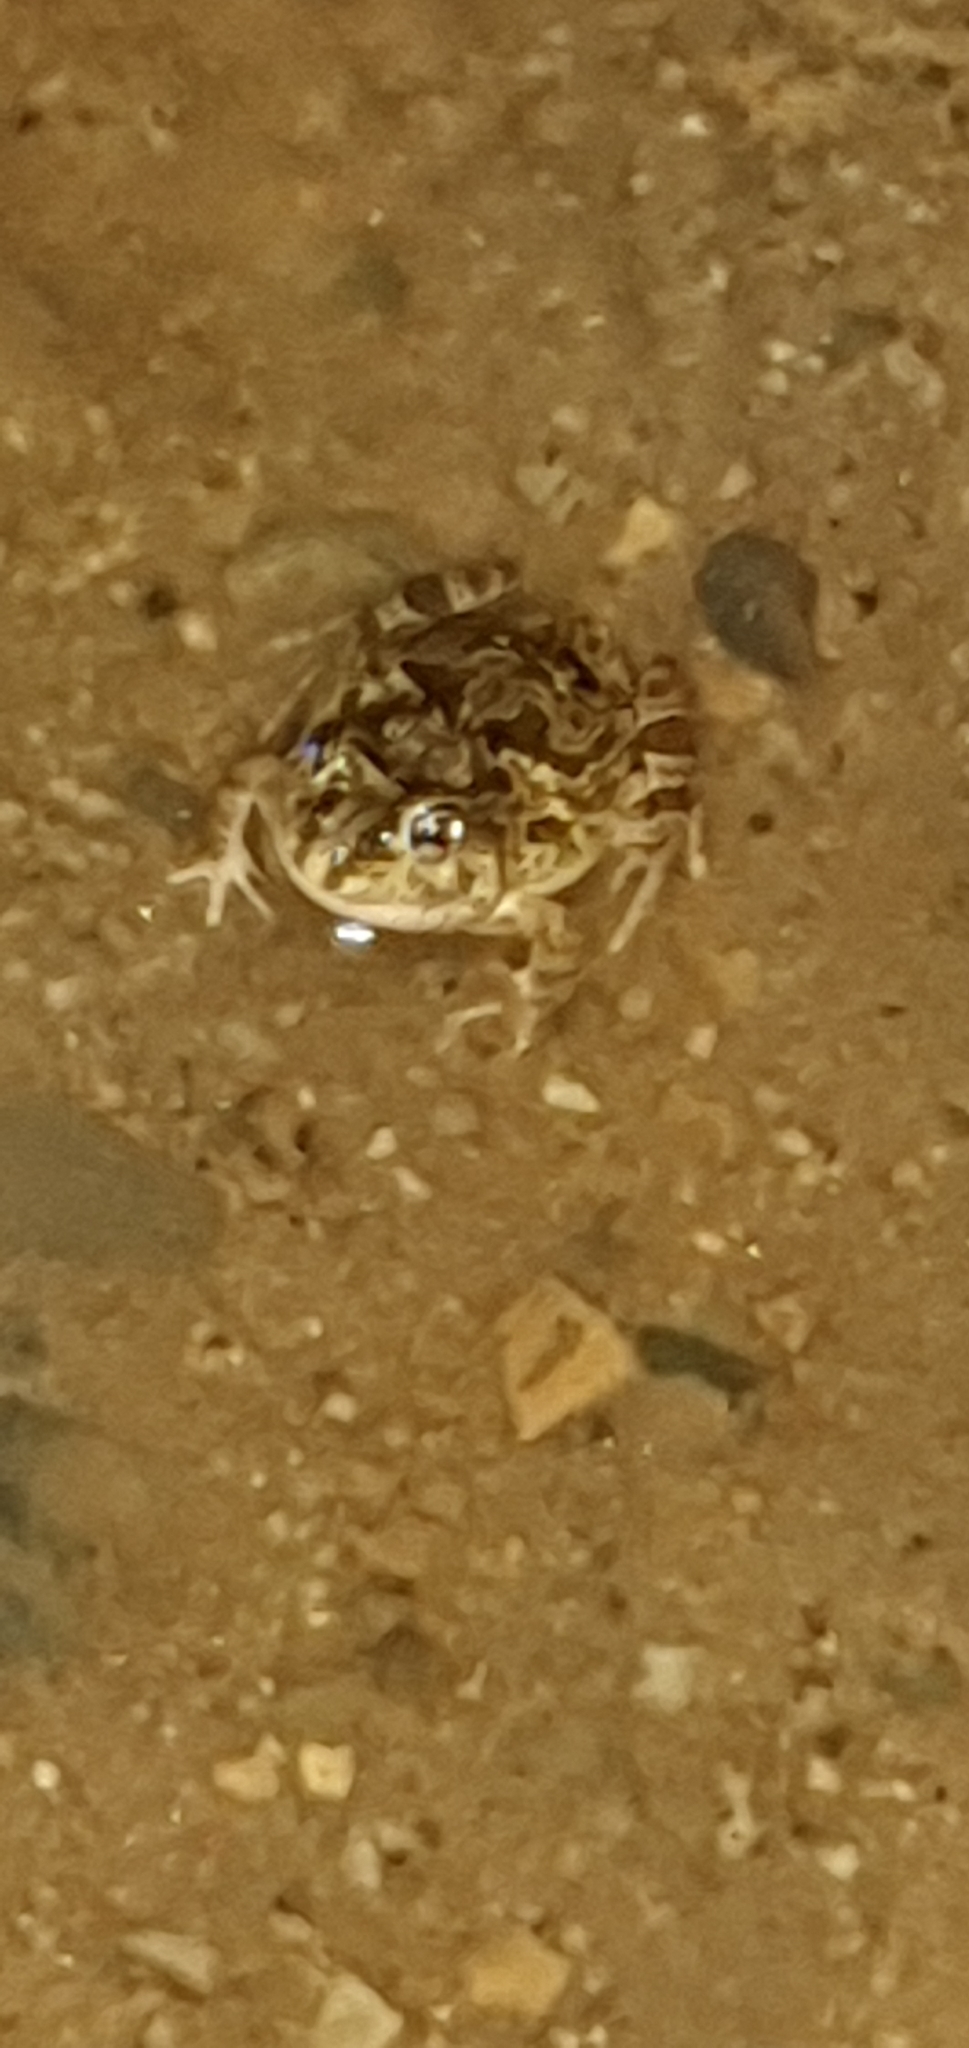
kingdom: Animalia
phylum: Chordata
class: Amphibia
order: Anura
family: Limnodynastidae
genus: Platyplectrum
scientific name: Platyplectrum ornatum
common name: Ornate burrowing frog
